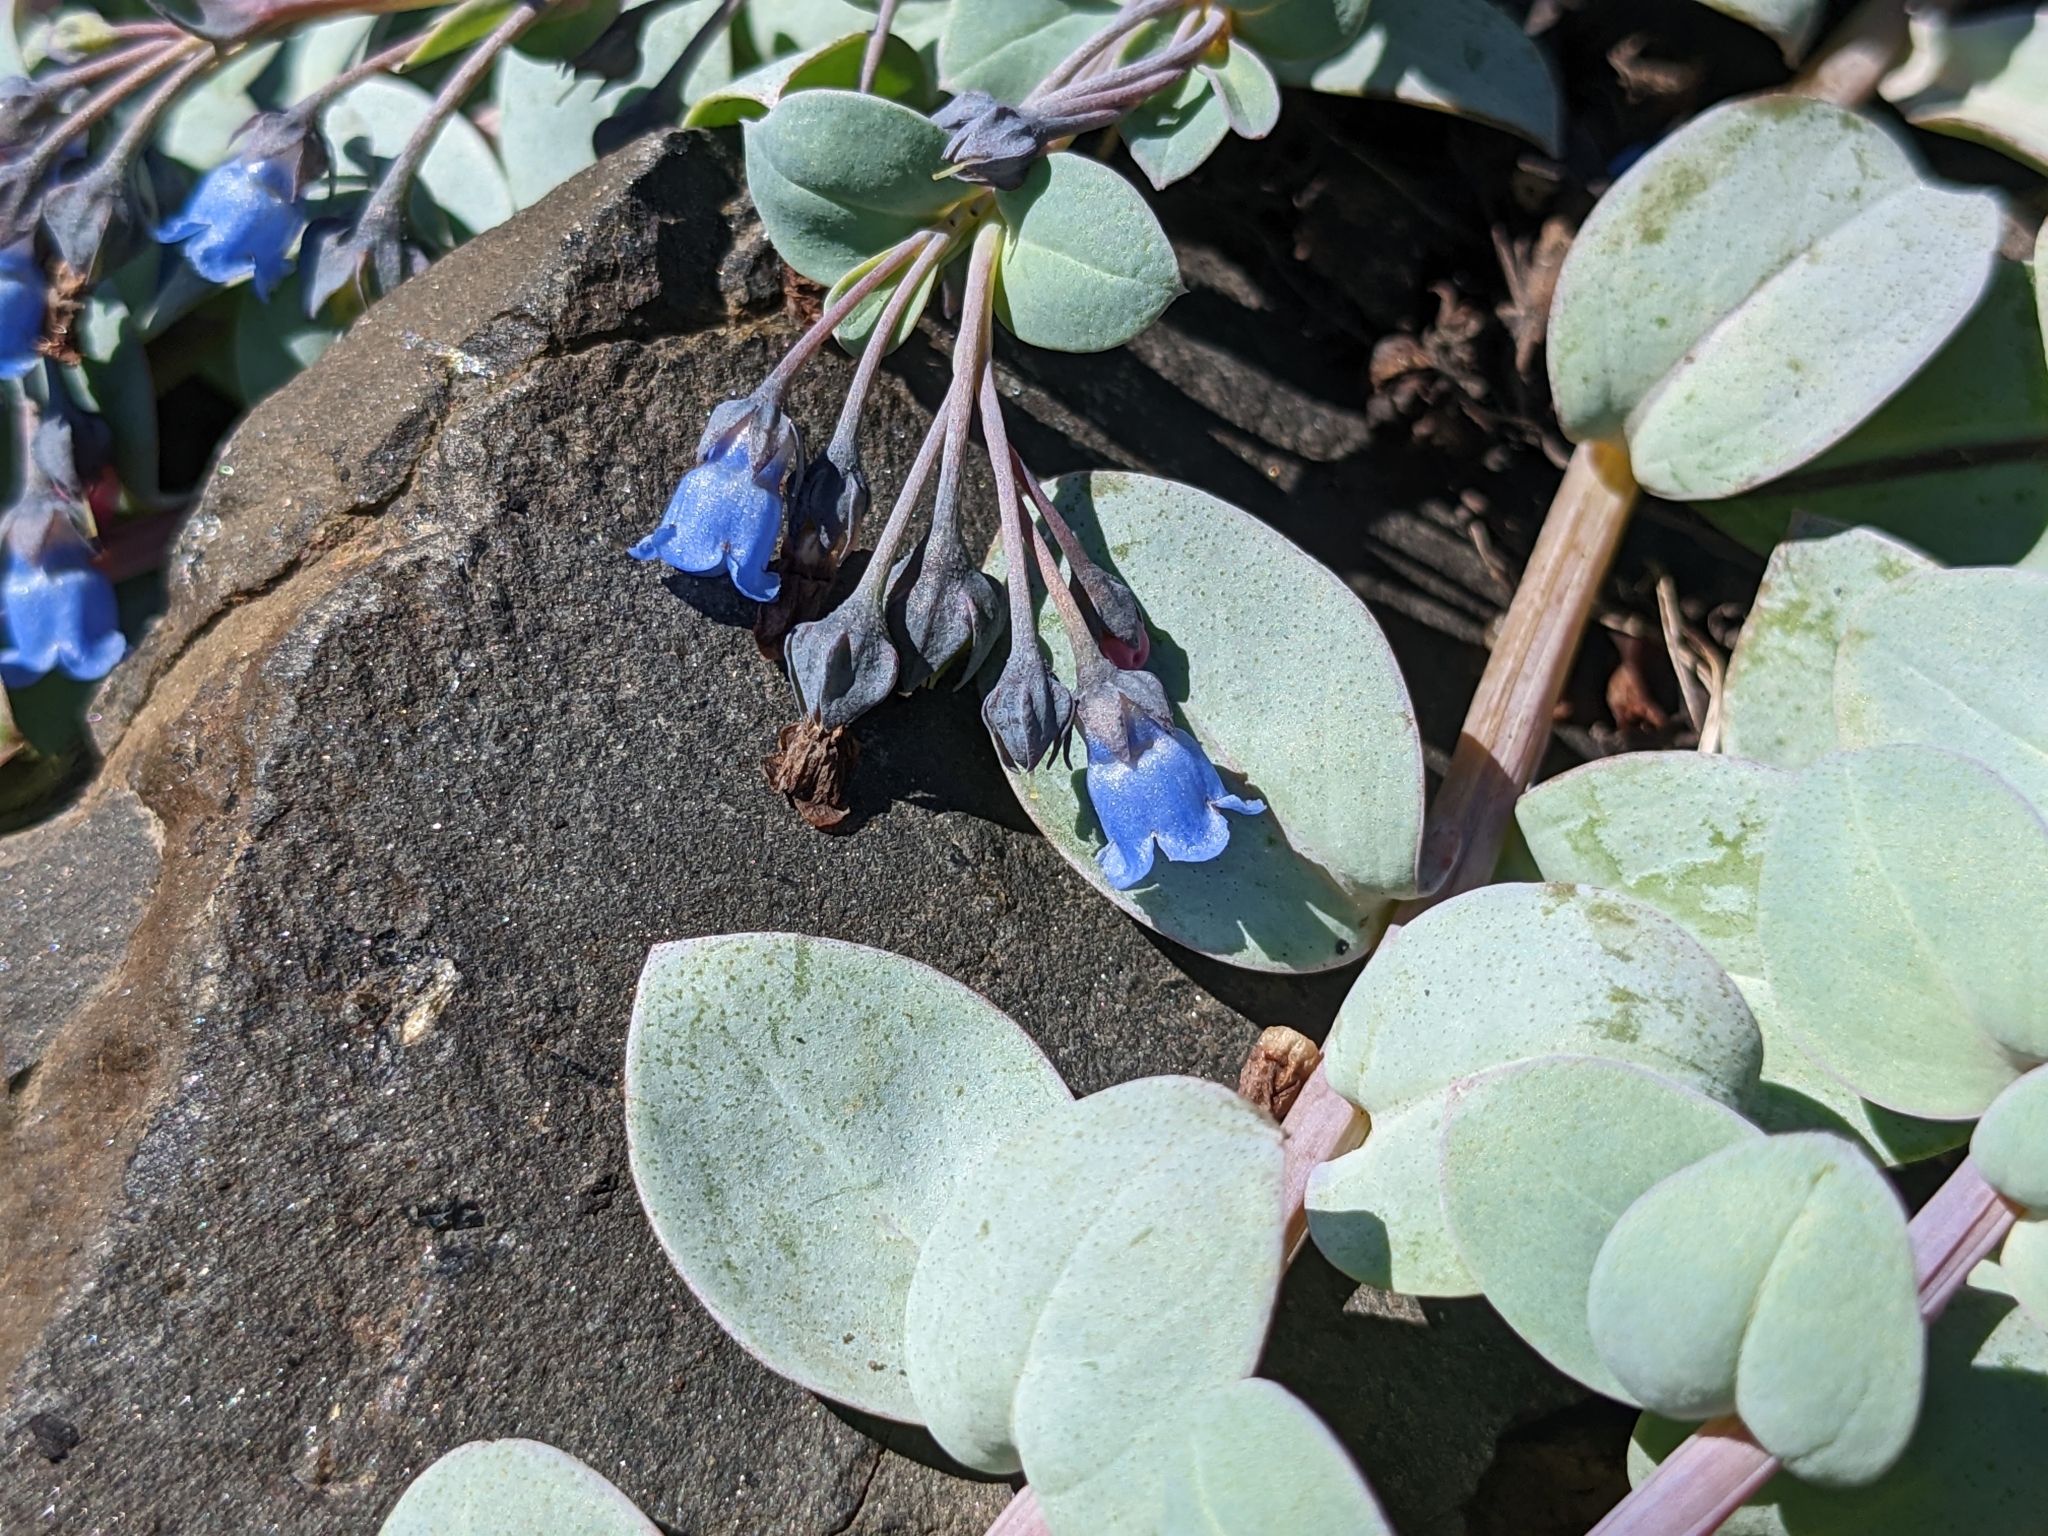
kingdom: Plantae
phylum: Tracheophyta
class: Magnoliopsida
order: Boraginales
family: Boraginaceae
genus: Mertensia
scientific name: Mertensia maritima
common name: Oysterplant
